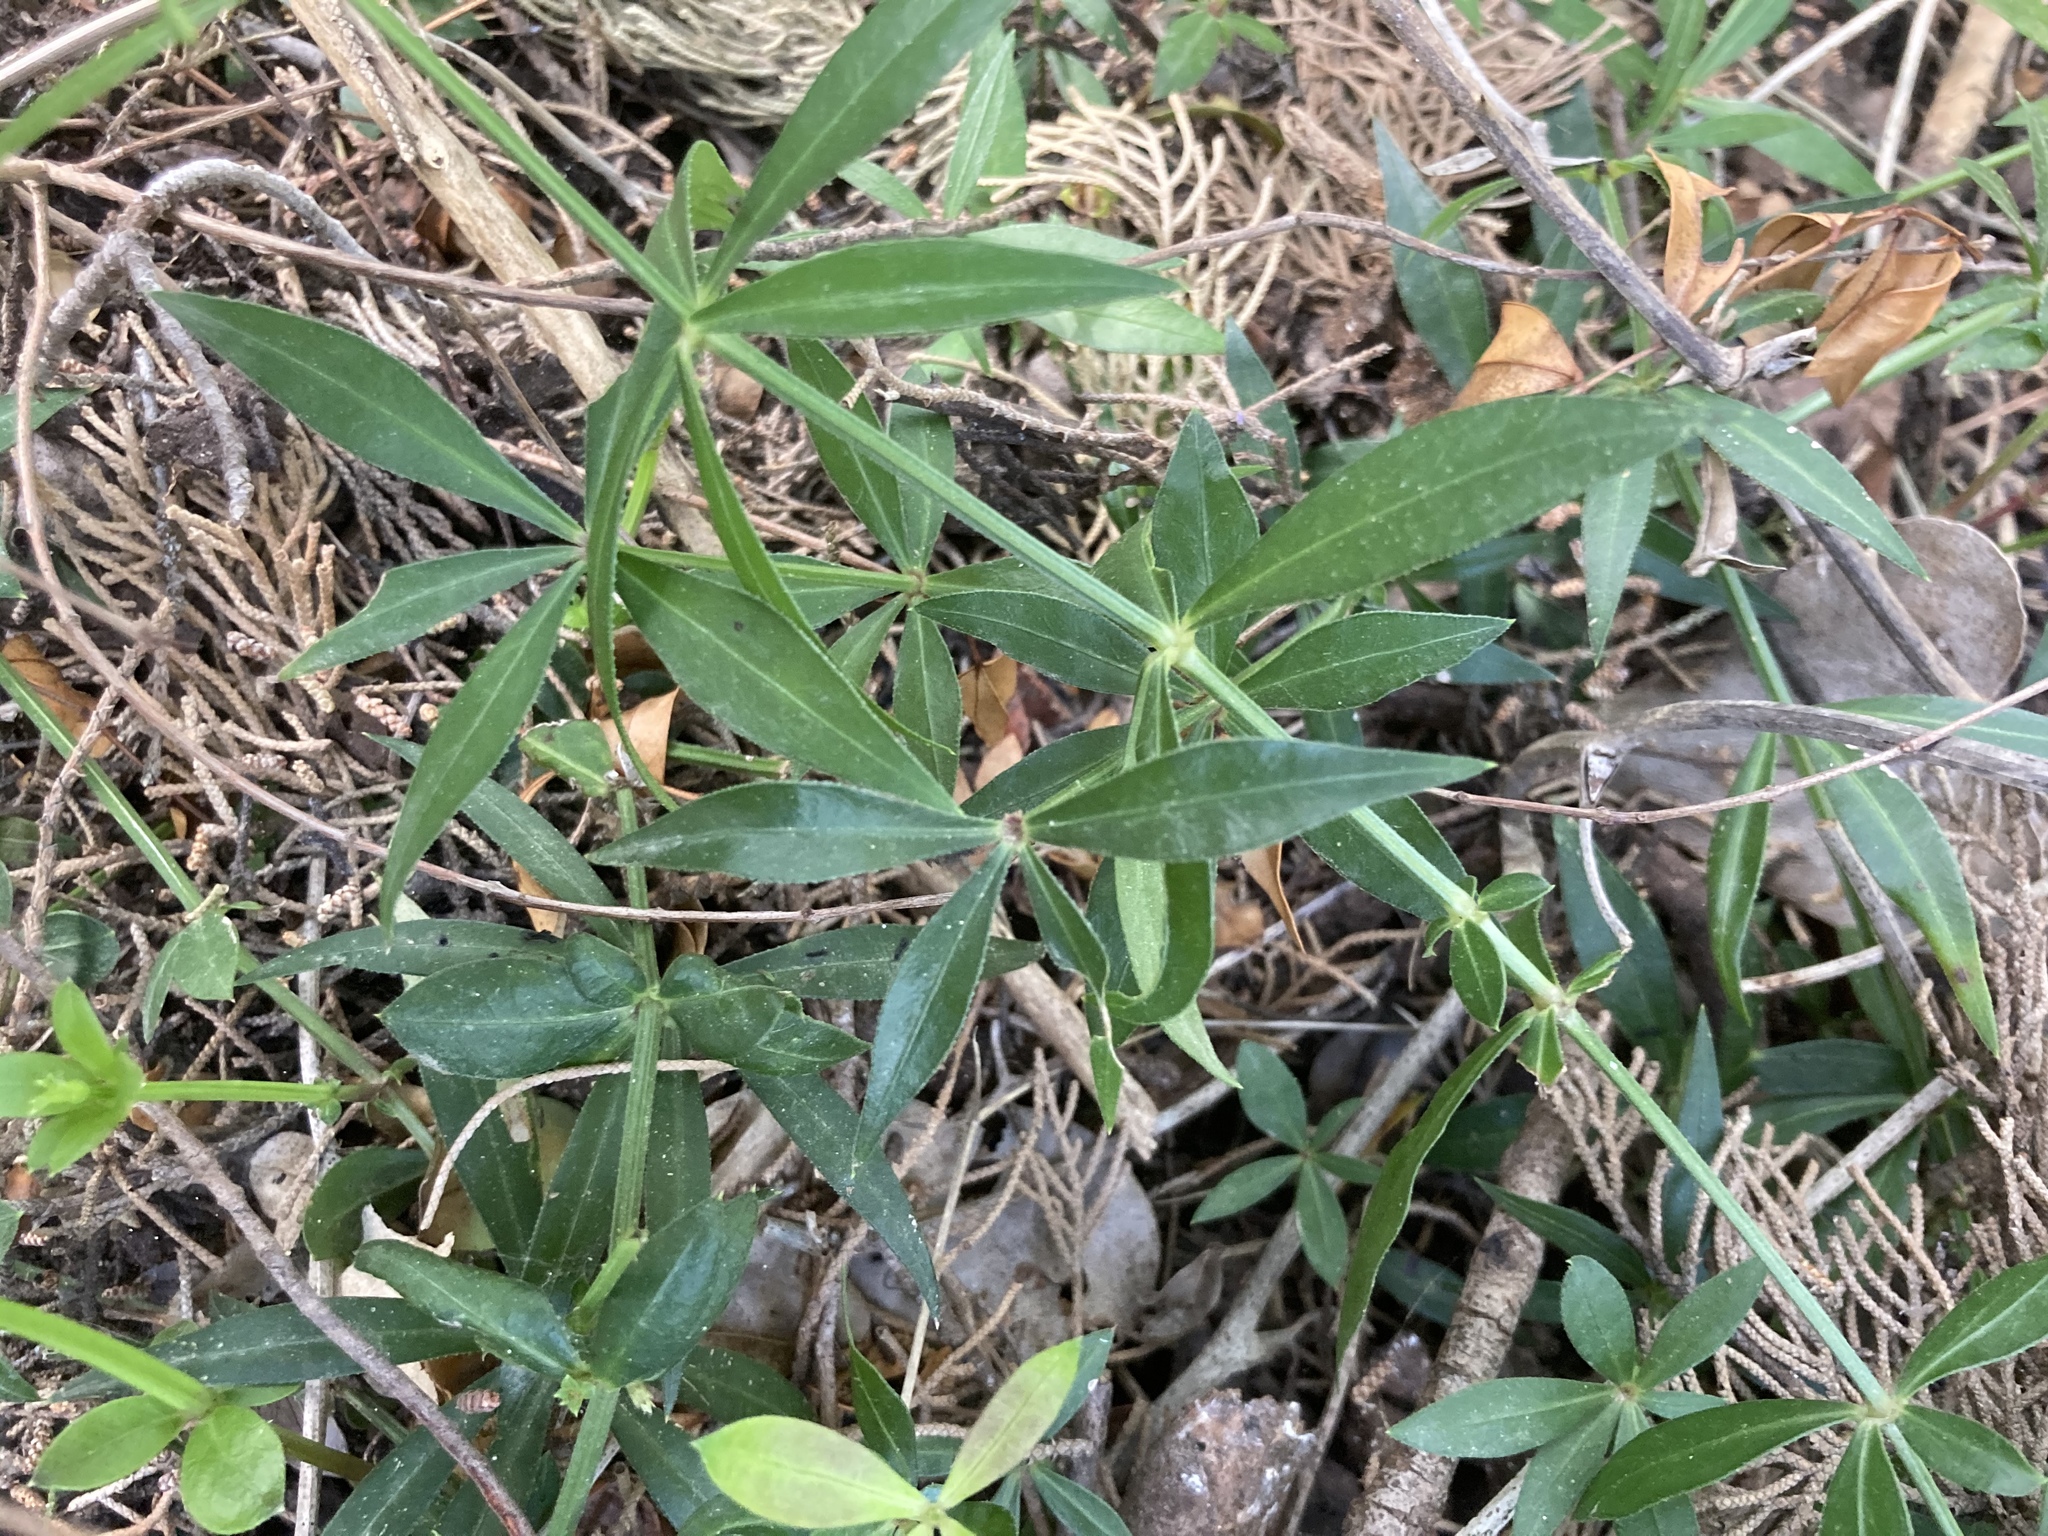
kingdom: Plantae
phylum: Tracheophyta
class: Magnoliopsida
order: Gentianales
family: Rubiaceae
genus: Rubia
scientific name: Rubia peregrina
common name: Wild madder
